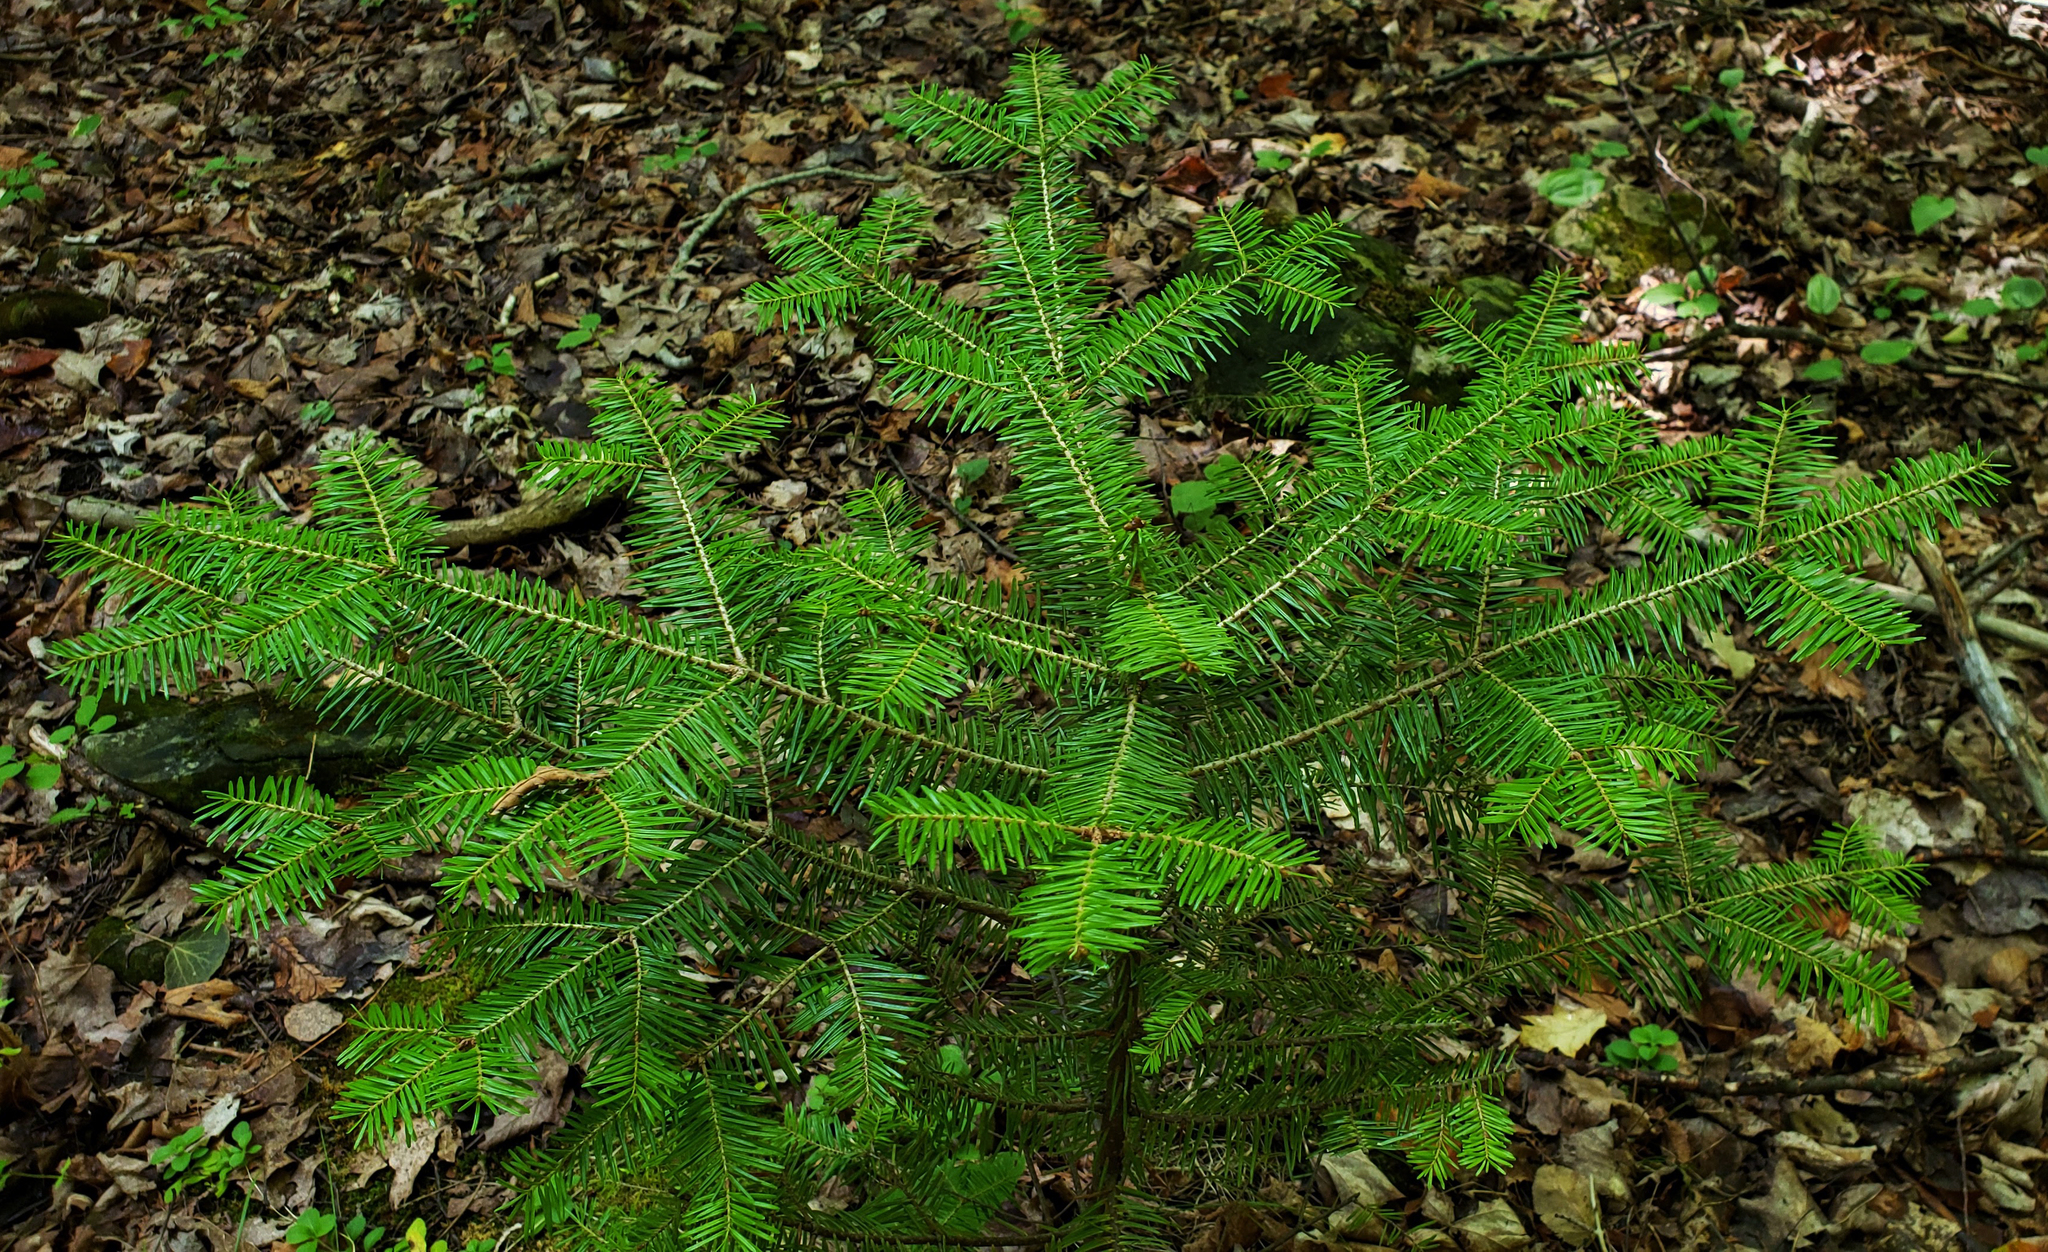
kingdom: Plantae
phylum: Tracheophyta
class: Pinopsida
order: Pinales
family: Pinaceae
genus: Abies
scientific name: Abies balsamea
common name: Balsam fir
